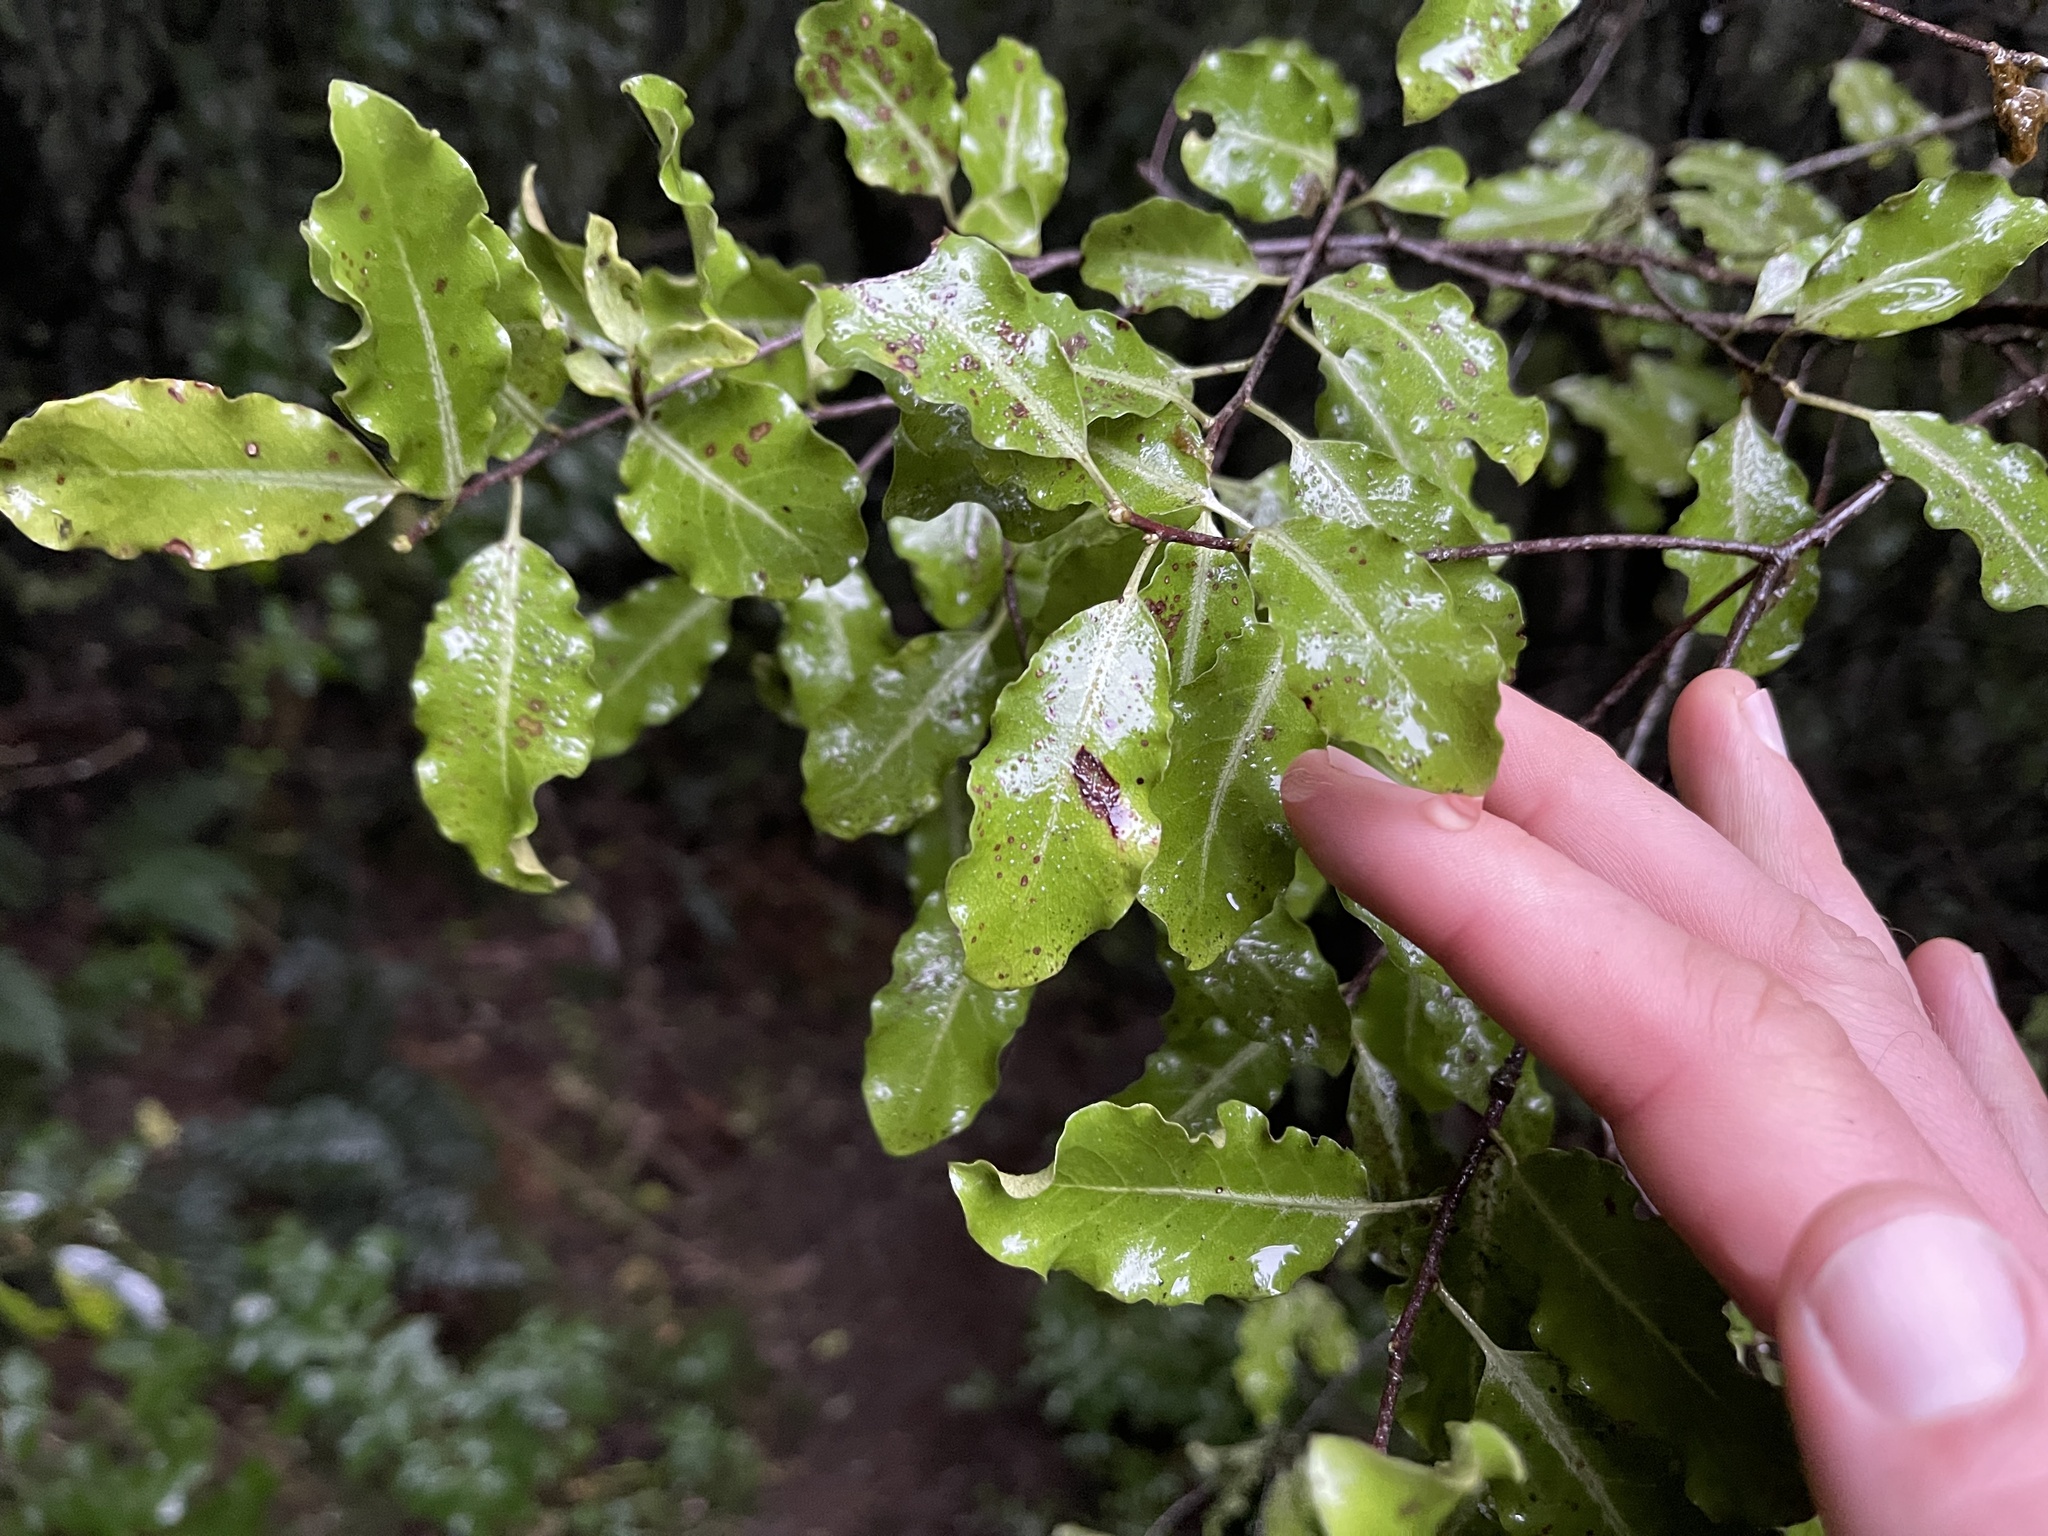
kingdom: Plantae
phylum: Tracheophyta
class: Magnoliopsida
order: Apiales
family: Pittosporaceae
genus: Pittosporum
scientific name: Pittosporum tenuifolium
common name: Kohuhu
